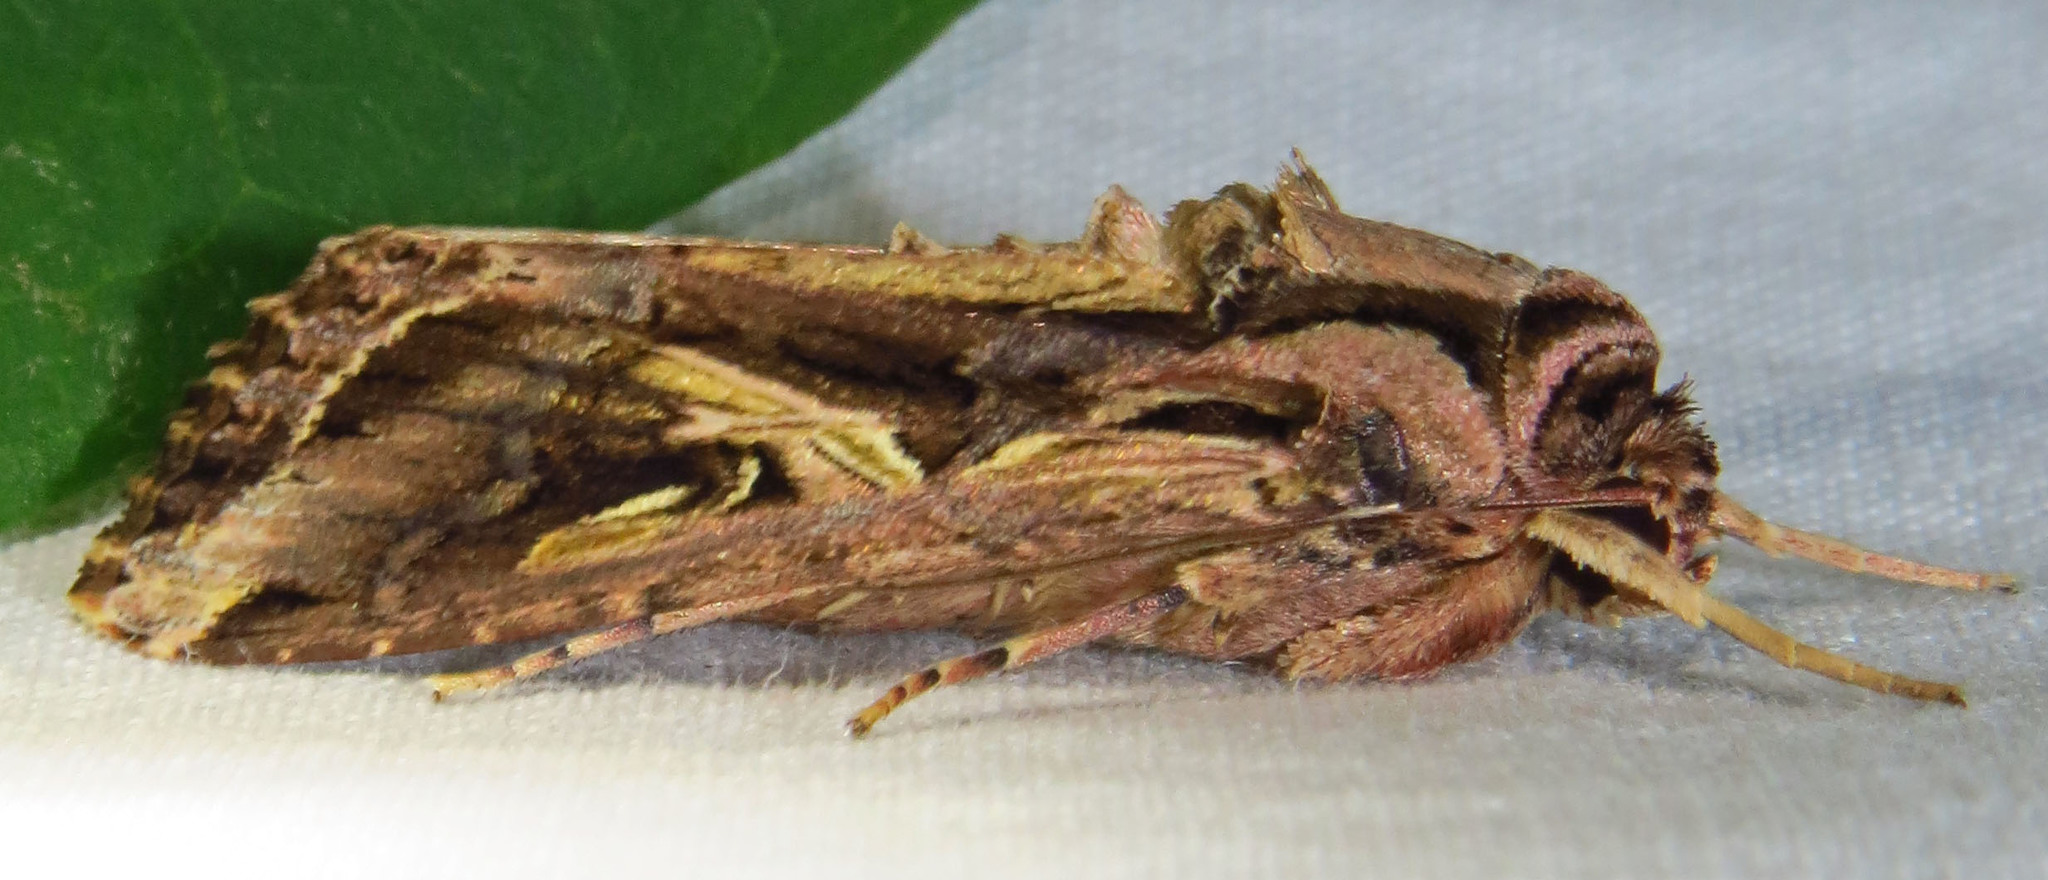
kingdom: Animalia
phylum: Arthropoda
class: Insecta
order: Lepidoptera
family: Noctuidae
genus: Spodoptera
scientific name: Spodoptera dolichos
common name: Sweetpotato armyworm
